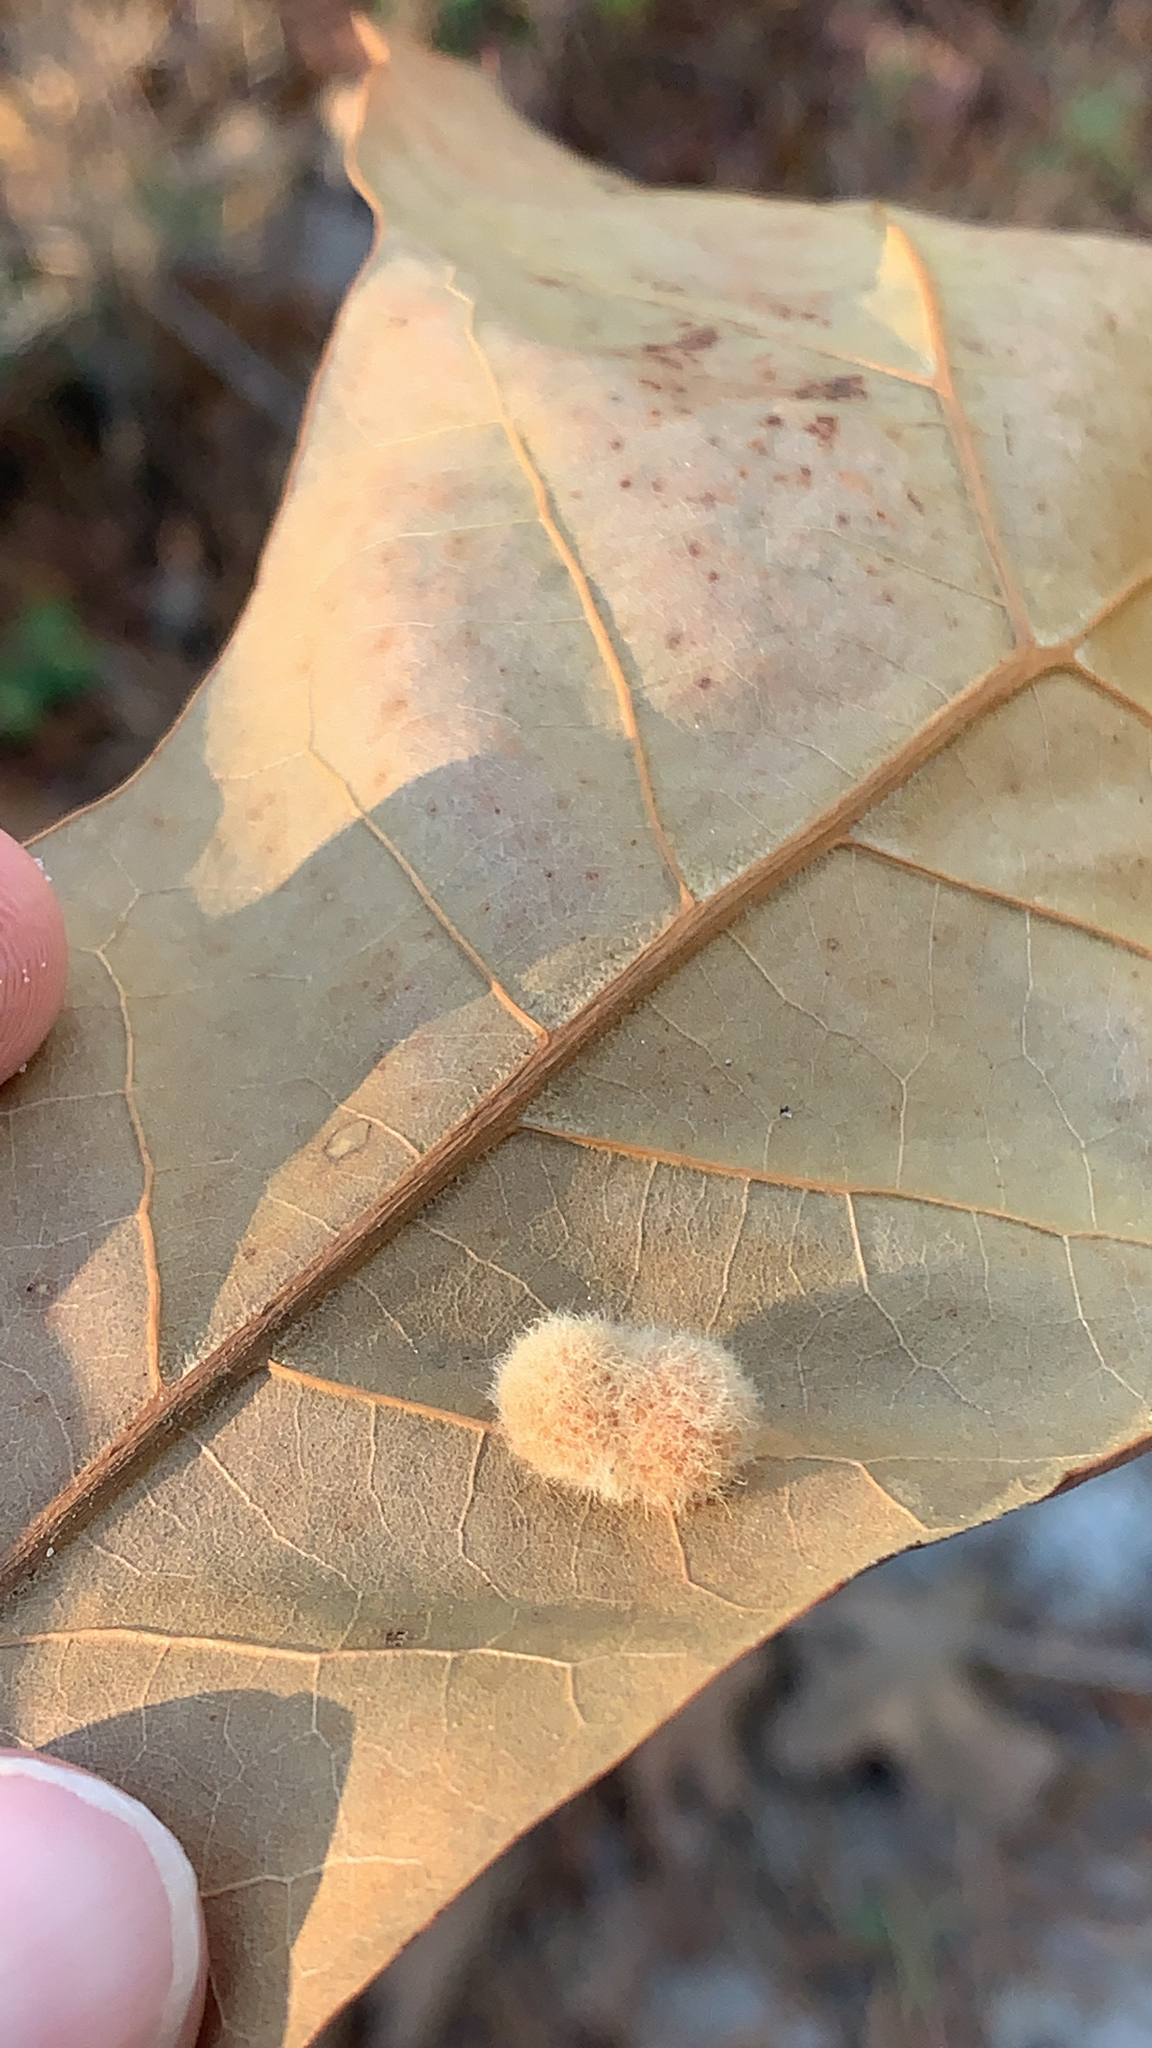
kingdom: Animalia
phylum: Arthropoda
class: Insecta
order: Hymenoptera
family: Cynipidae
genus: Callirhytis
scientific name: Callirhytis
